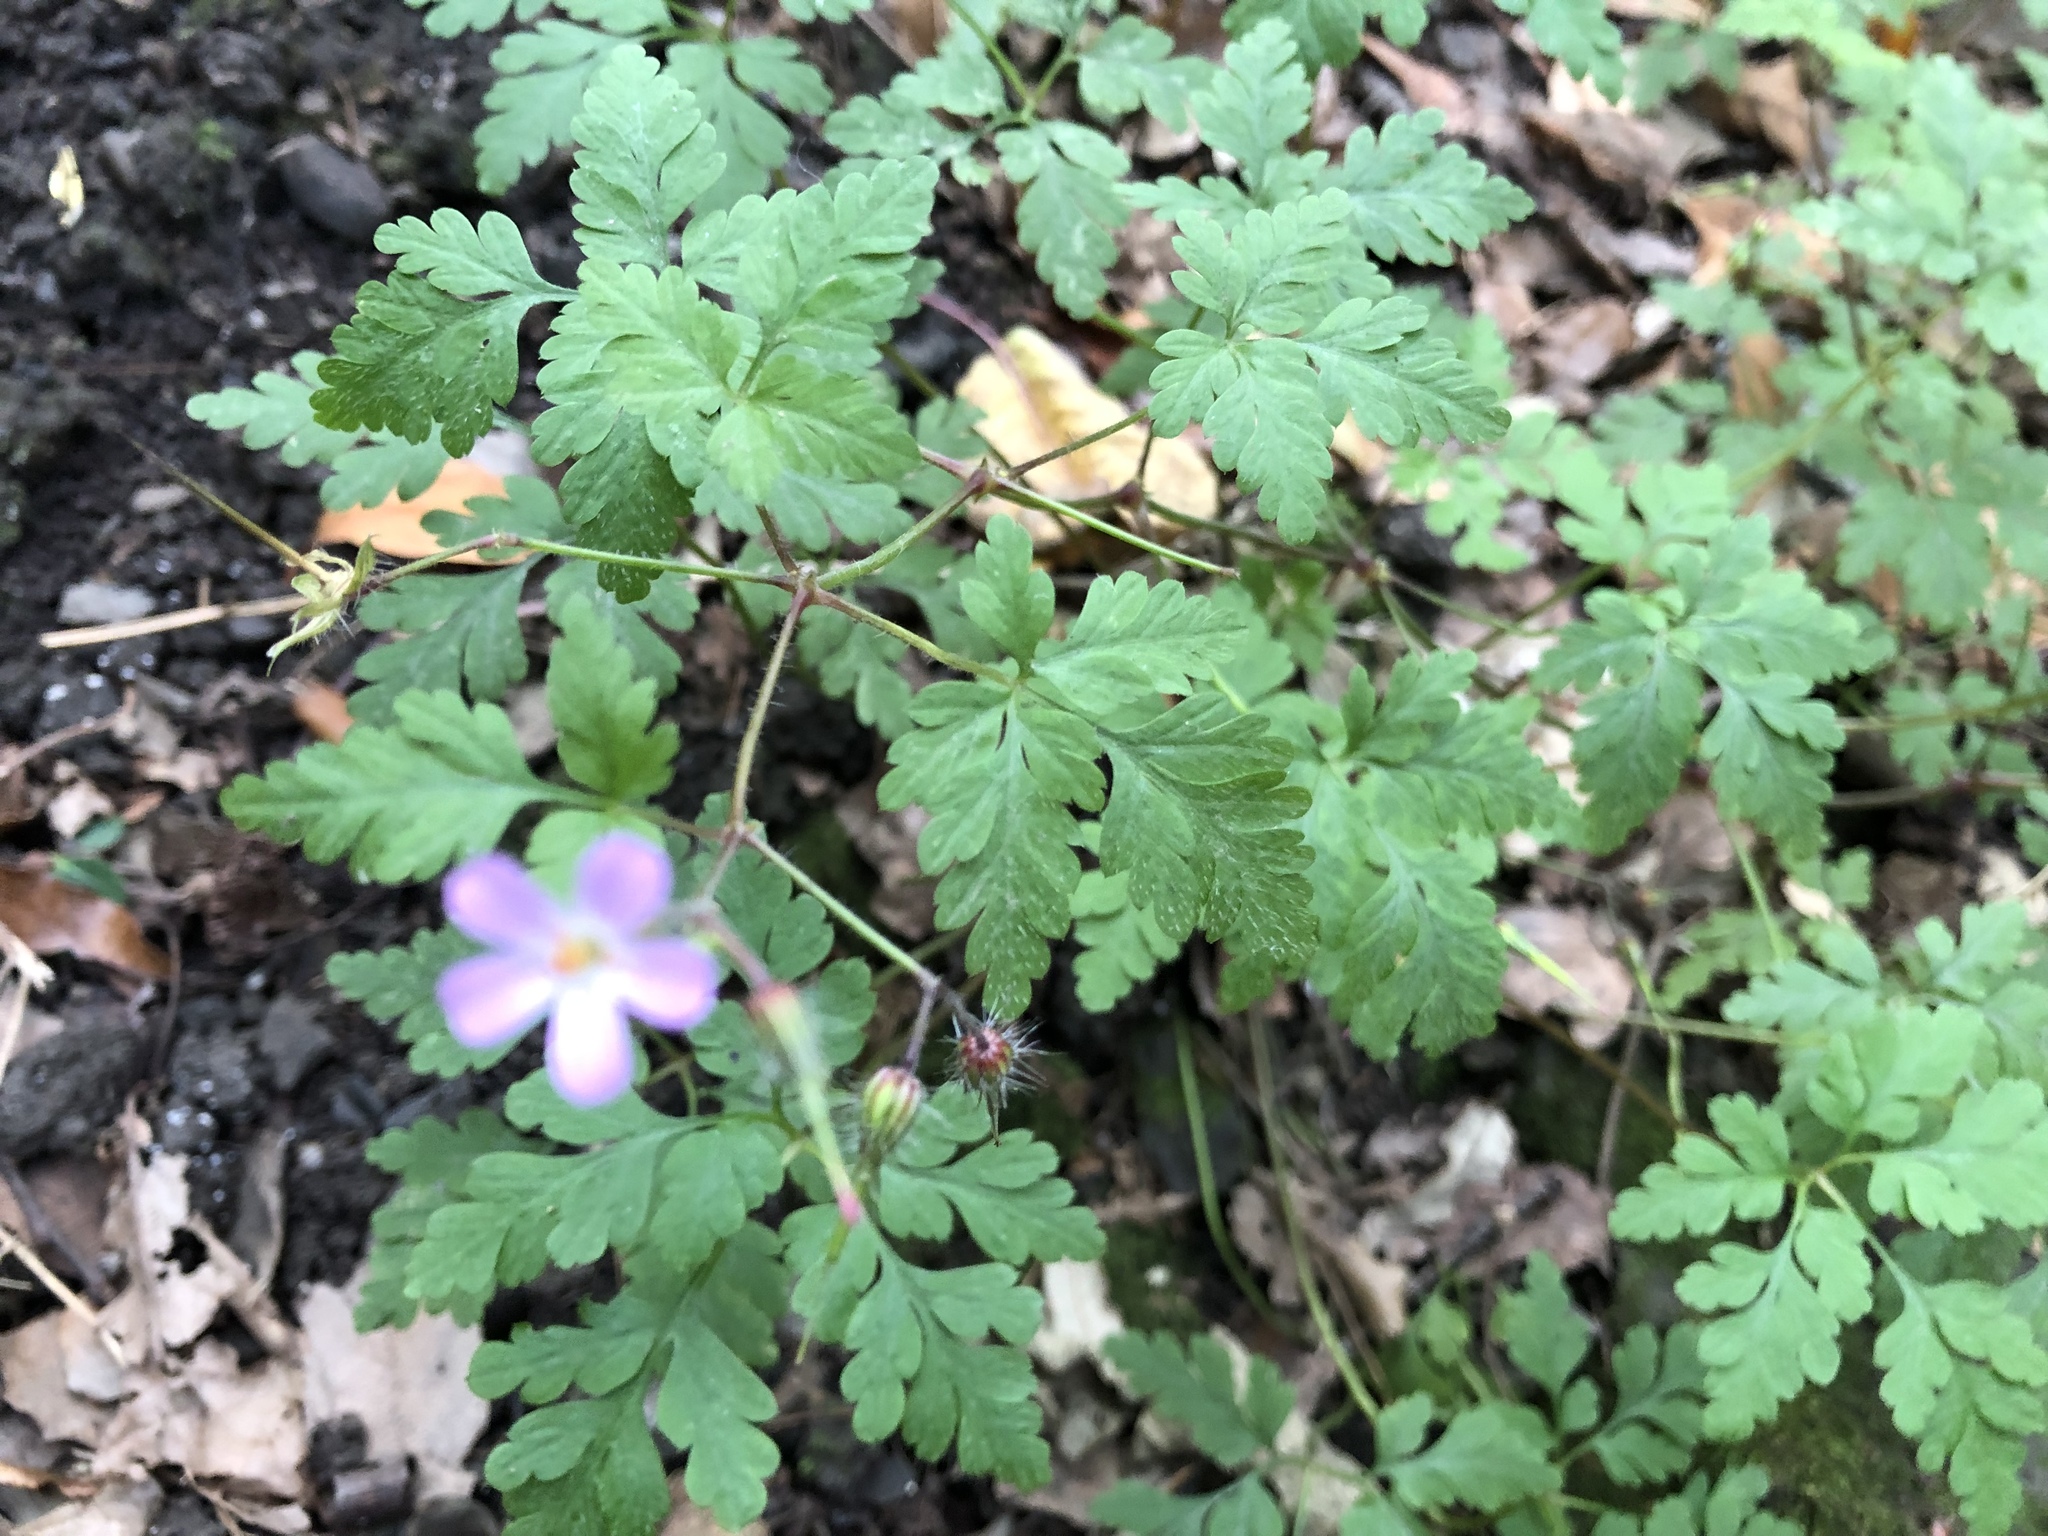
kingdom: Plantae
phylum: Tracheophyta
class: Magnoliopsida
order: Geraniales
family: Geraniaceae
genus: Geranium
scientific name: Geranium robertianum
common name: Herb-robert
